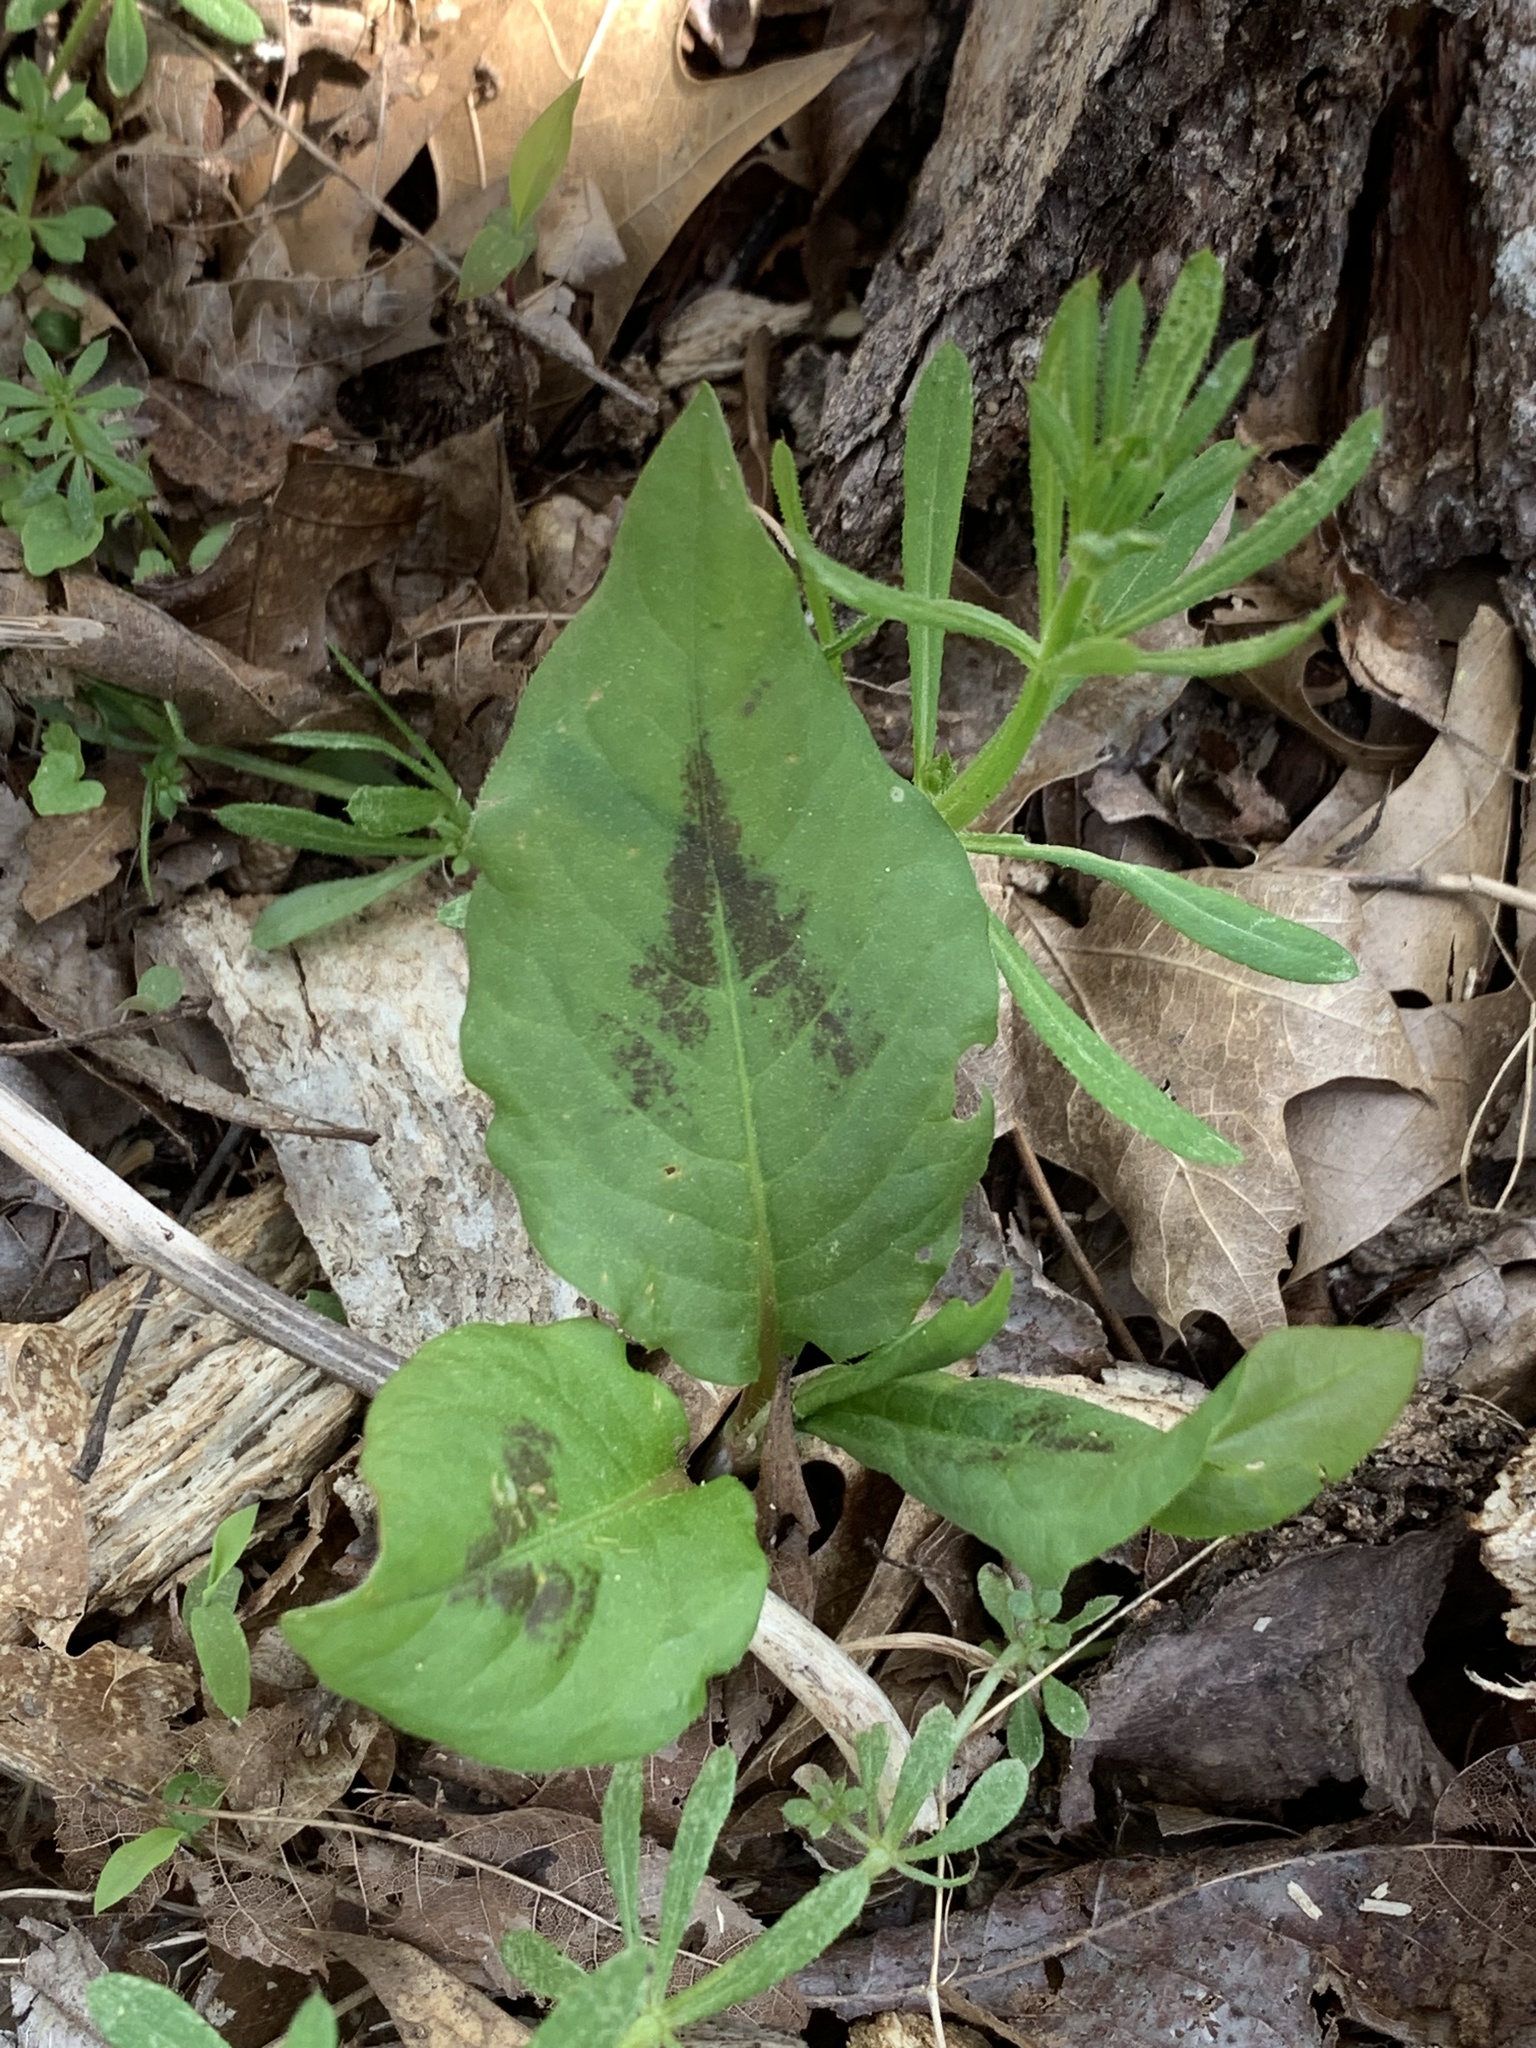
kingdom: Plantae
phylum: Tracheophyta
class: Magnoliopsida
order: Caryophyllales
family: Polygonaceae
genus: Persicaria
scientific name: Persicaria virginiana
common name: Jumpseed
